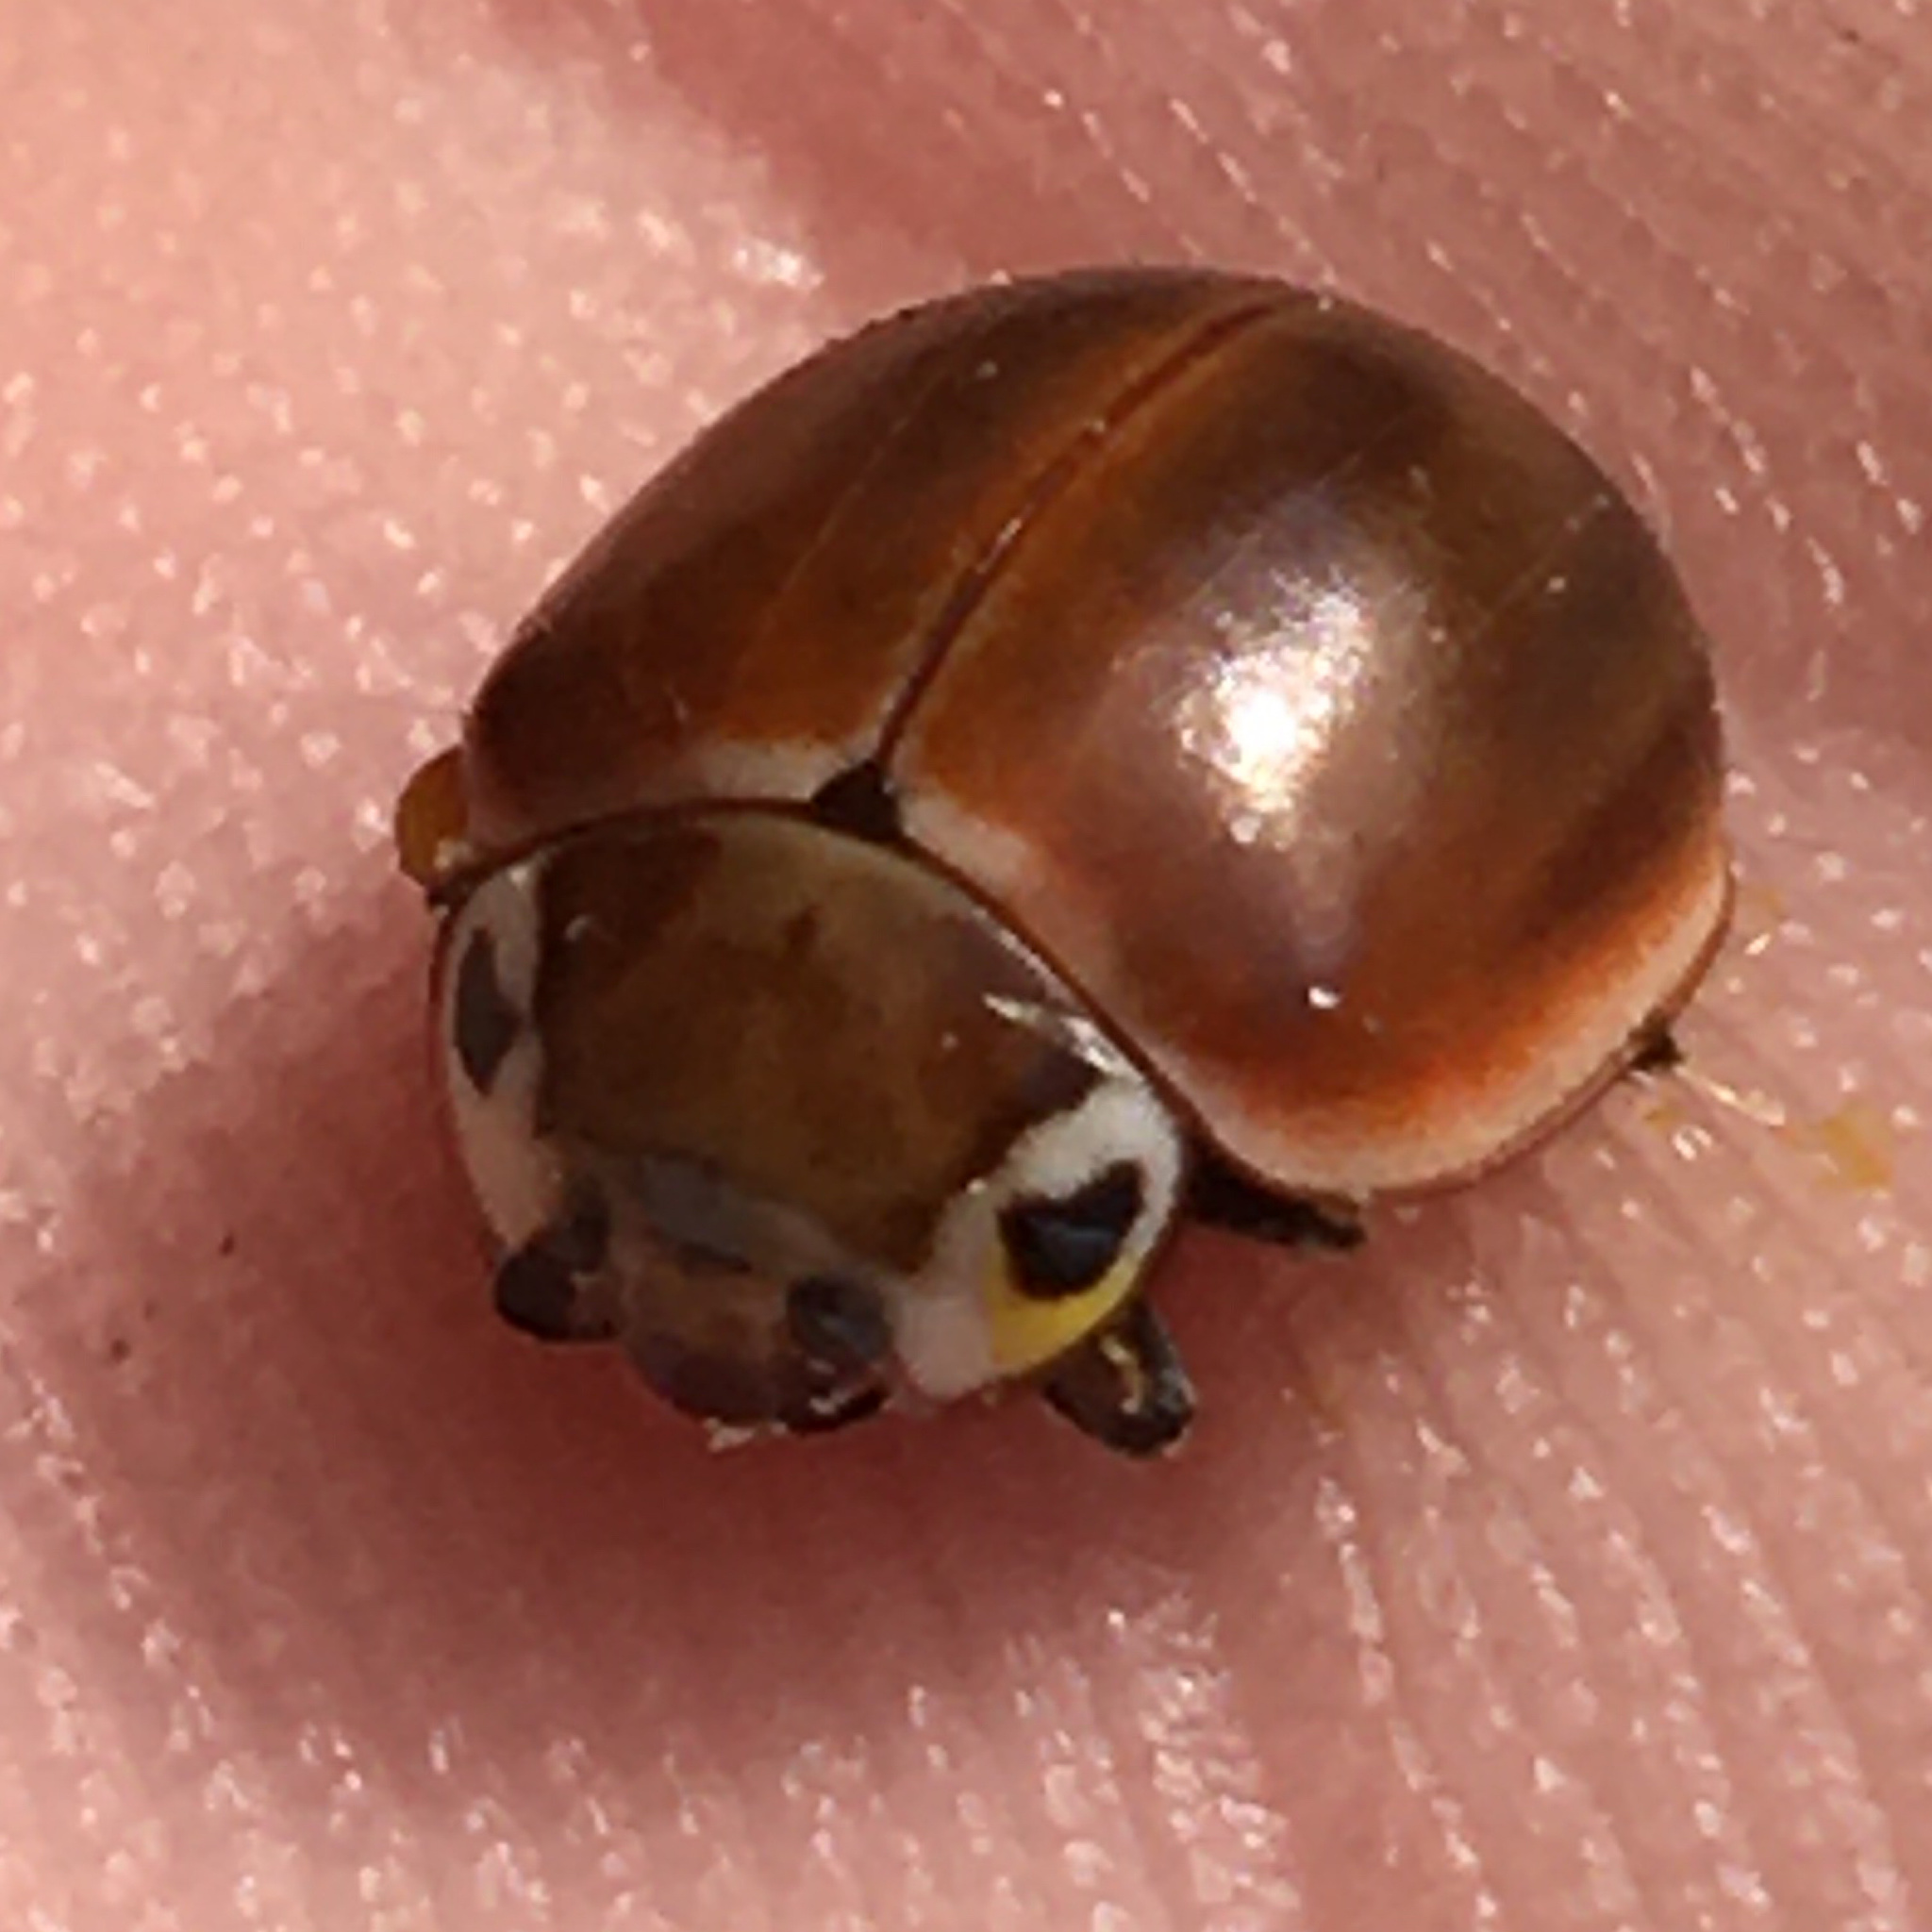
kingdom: Animalia
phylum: Arthropoda
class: Insecta
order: Coleoptera
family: Coccinellidae
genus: Myzia
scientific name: Myzia pullata
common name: Streaked lady beetle
